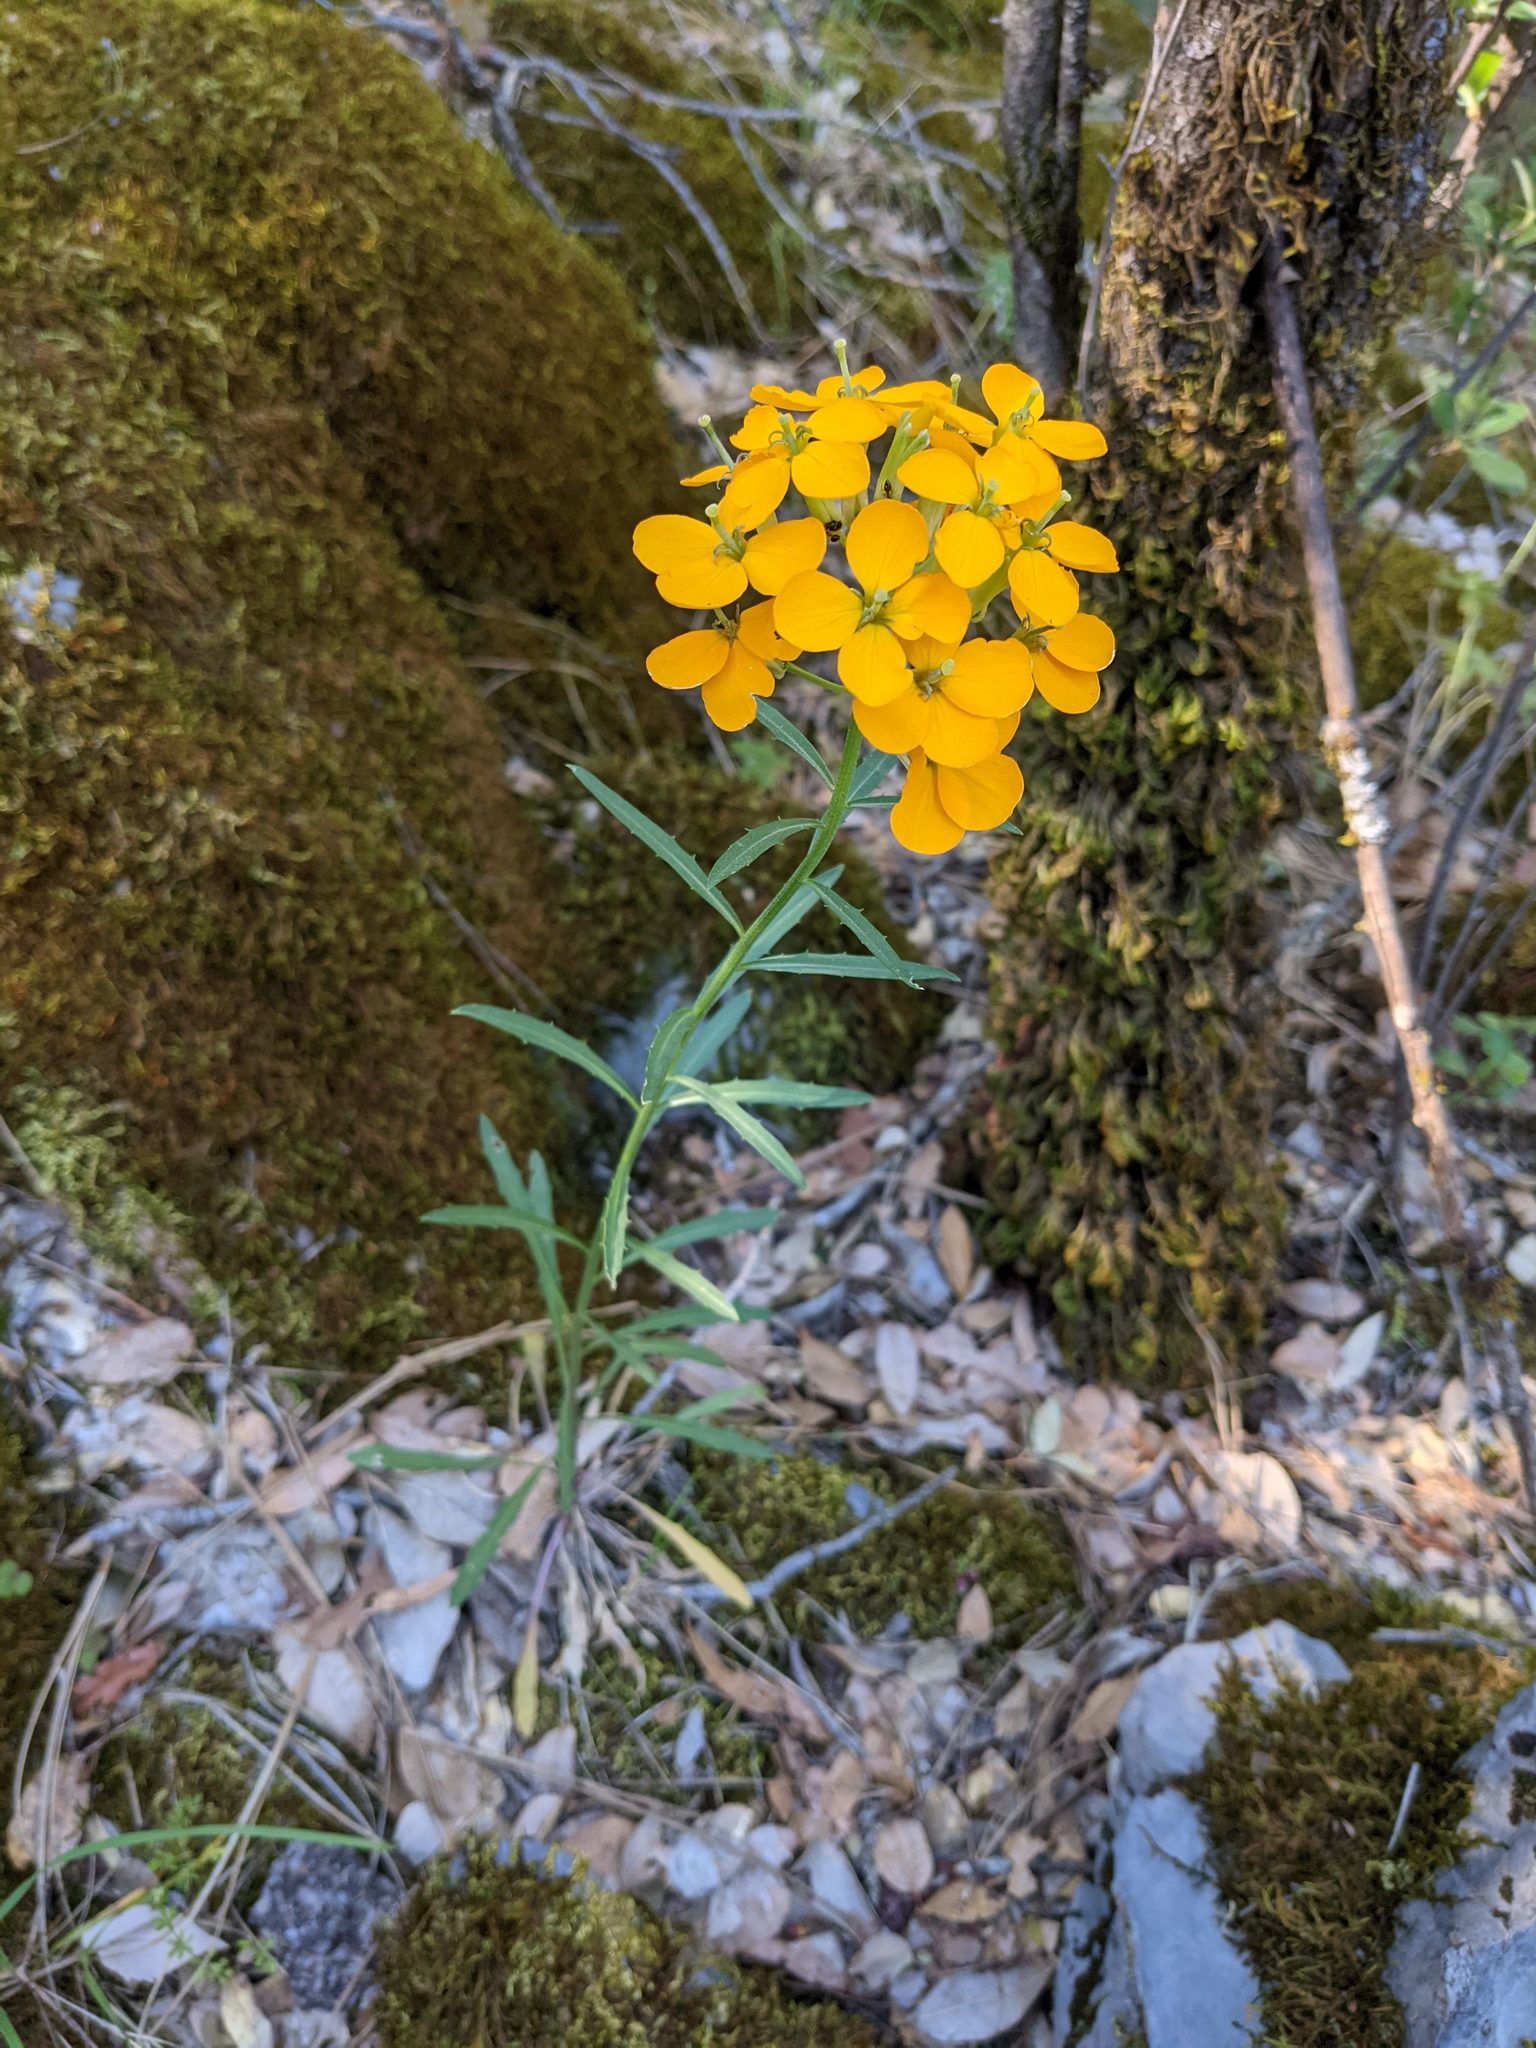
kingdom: Plantae
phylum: Tracheophyta
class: Magnoliopsida
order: Brassicales
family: Brassicaceae
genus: Erysimum
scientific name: Erysimum capitatum
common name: Western wallflower
